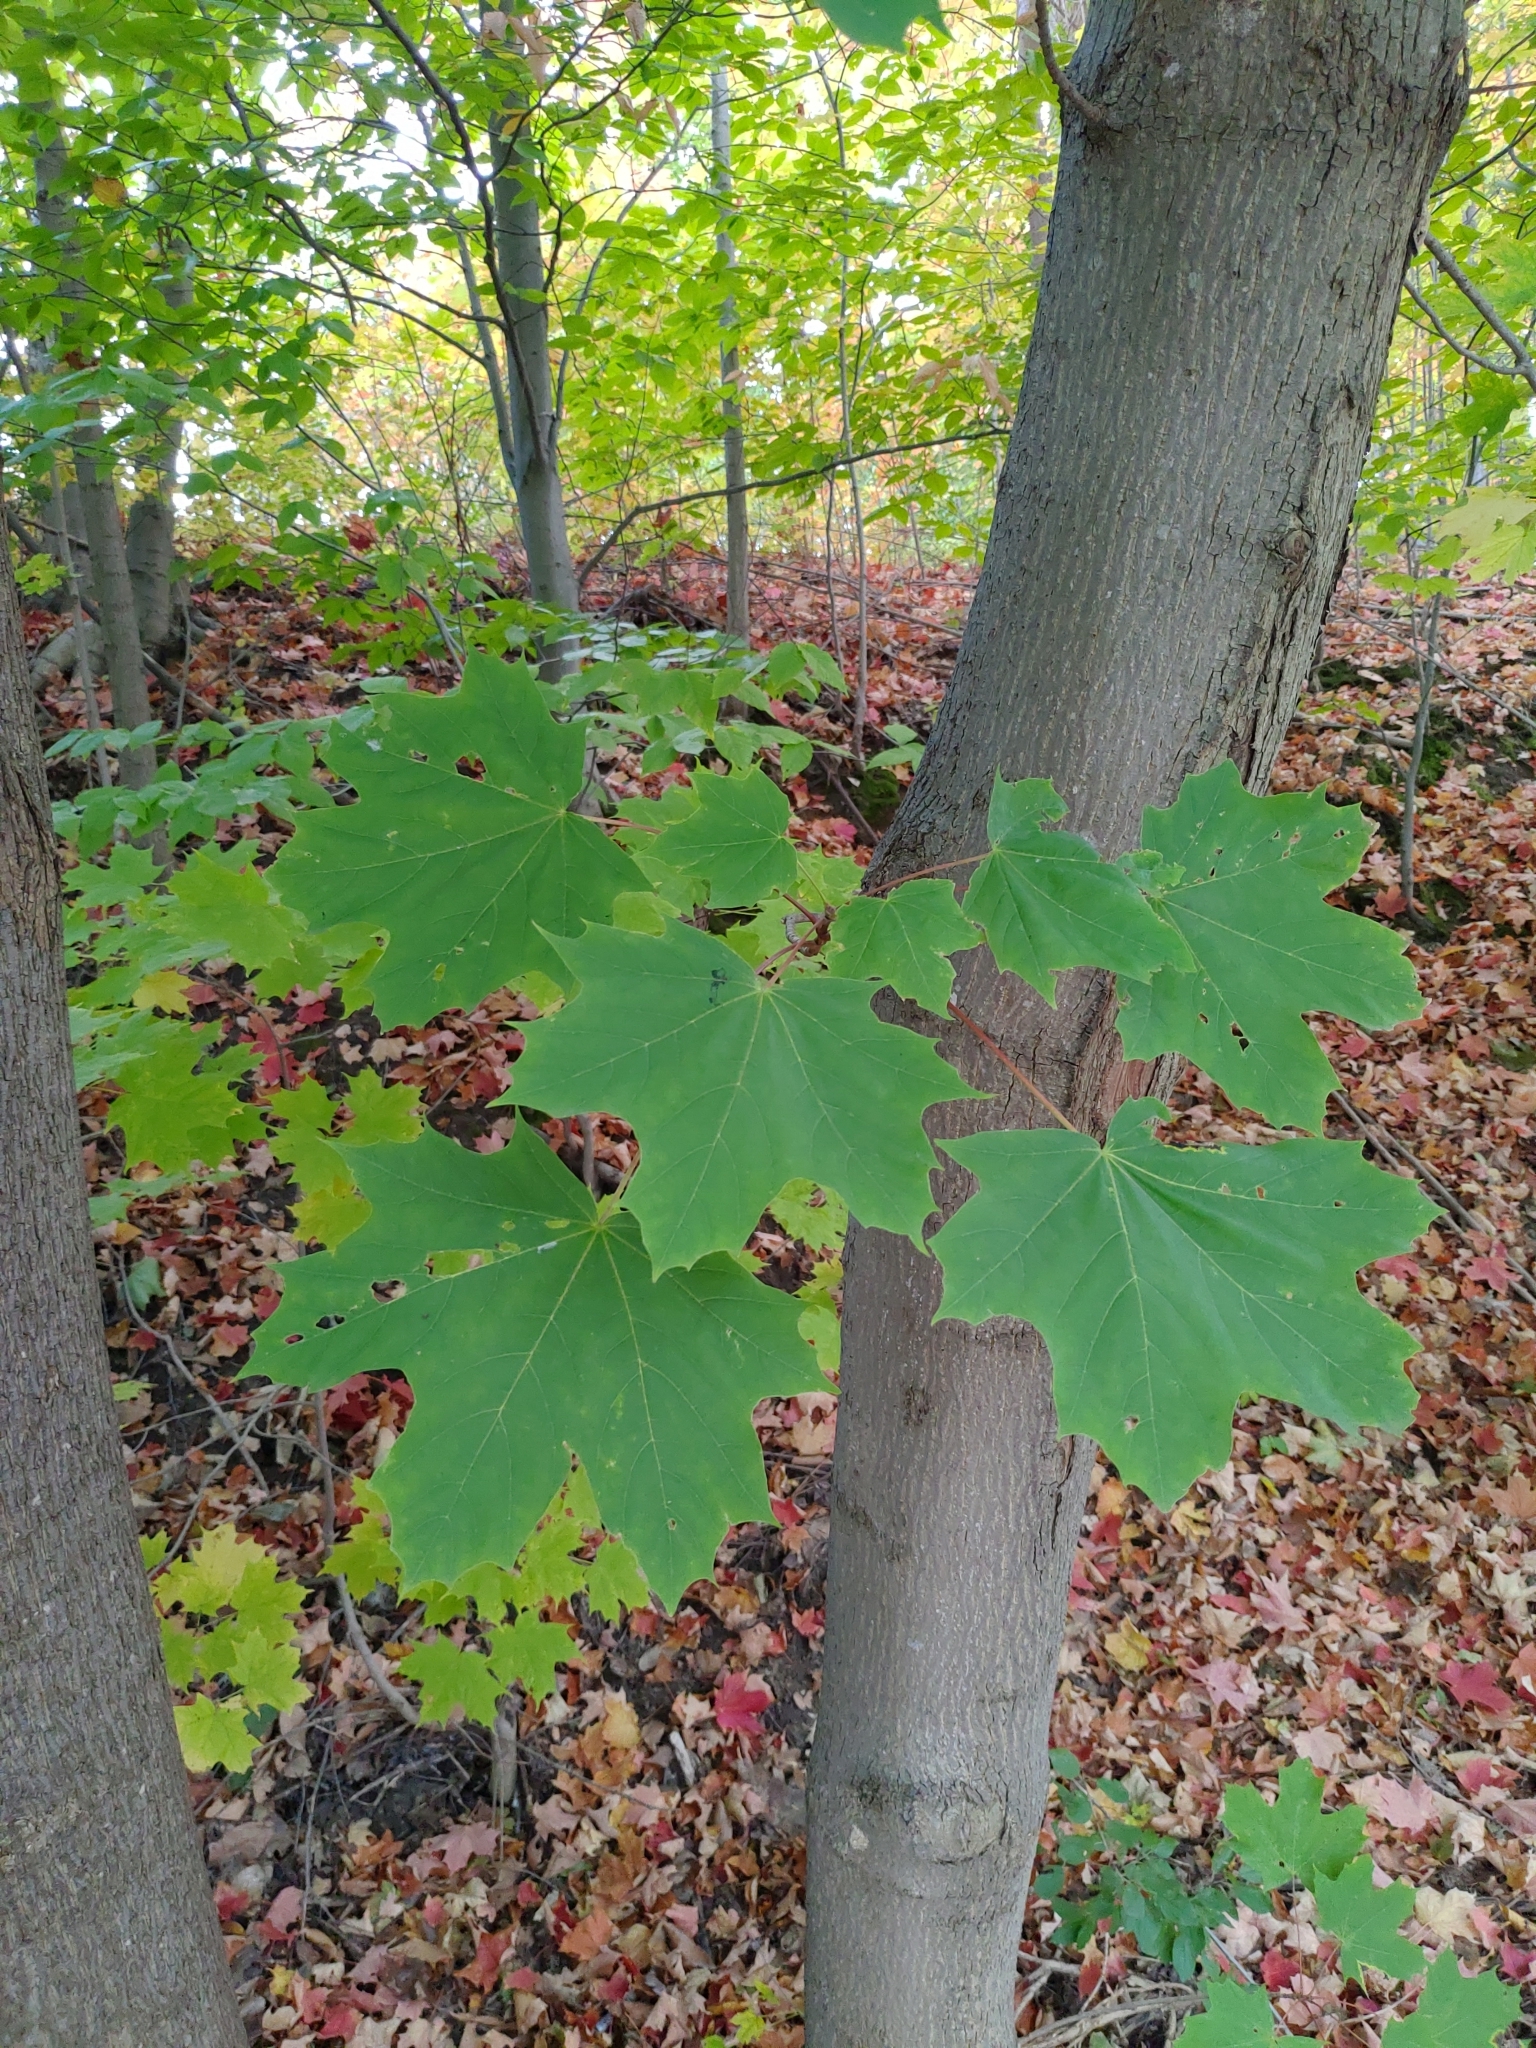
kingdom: Plantae
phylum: Tracheophyta
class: Magnoliopsida
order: Sapindales
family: Sapindaceae
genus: Acer
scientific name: Acer platanoides
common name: Norway maple
